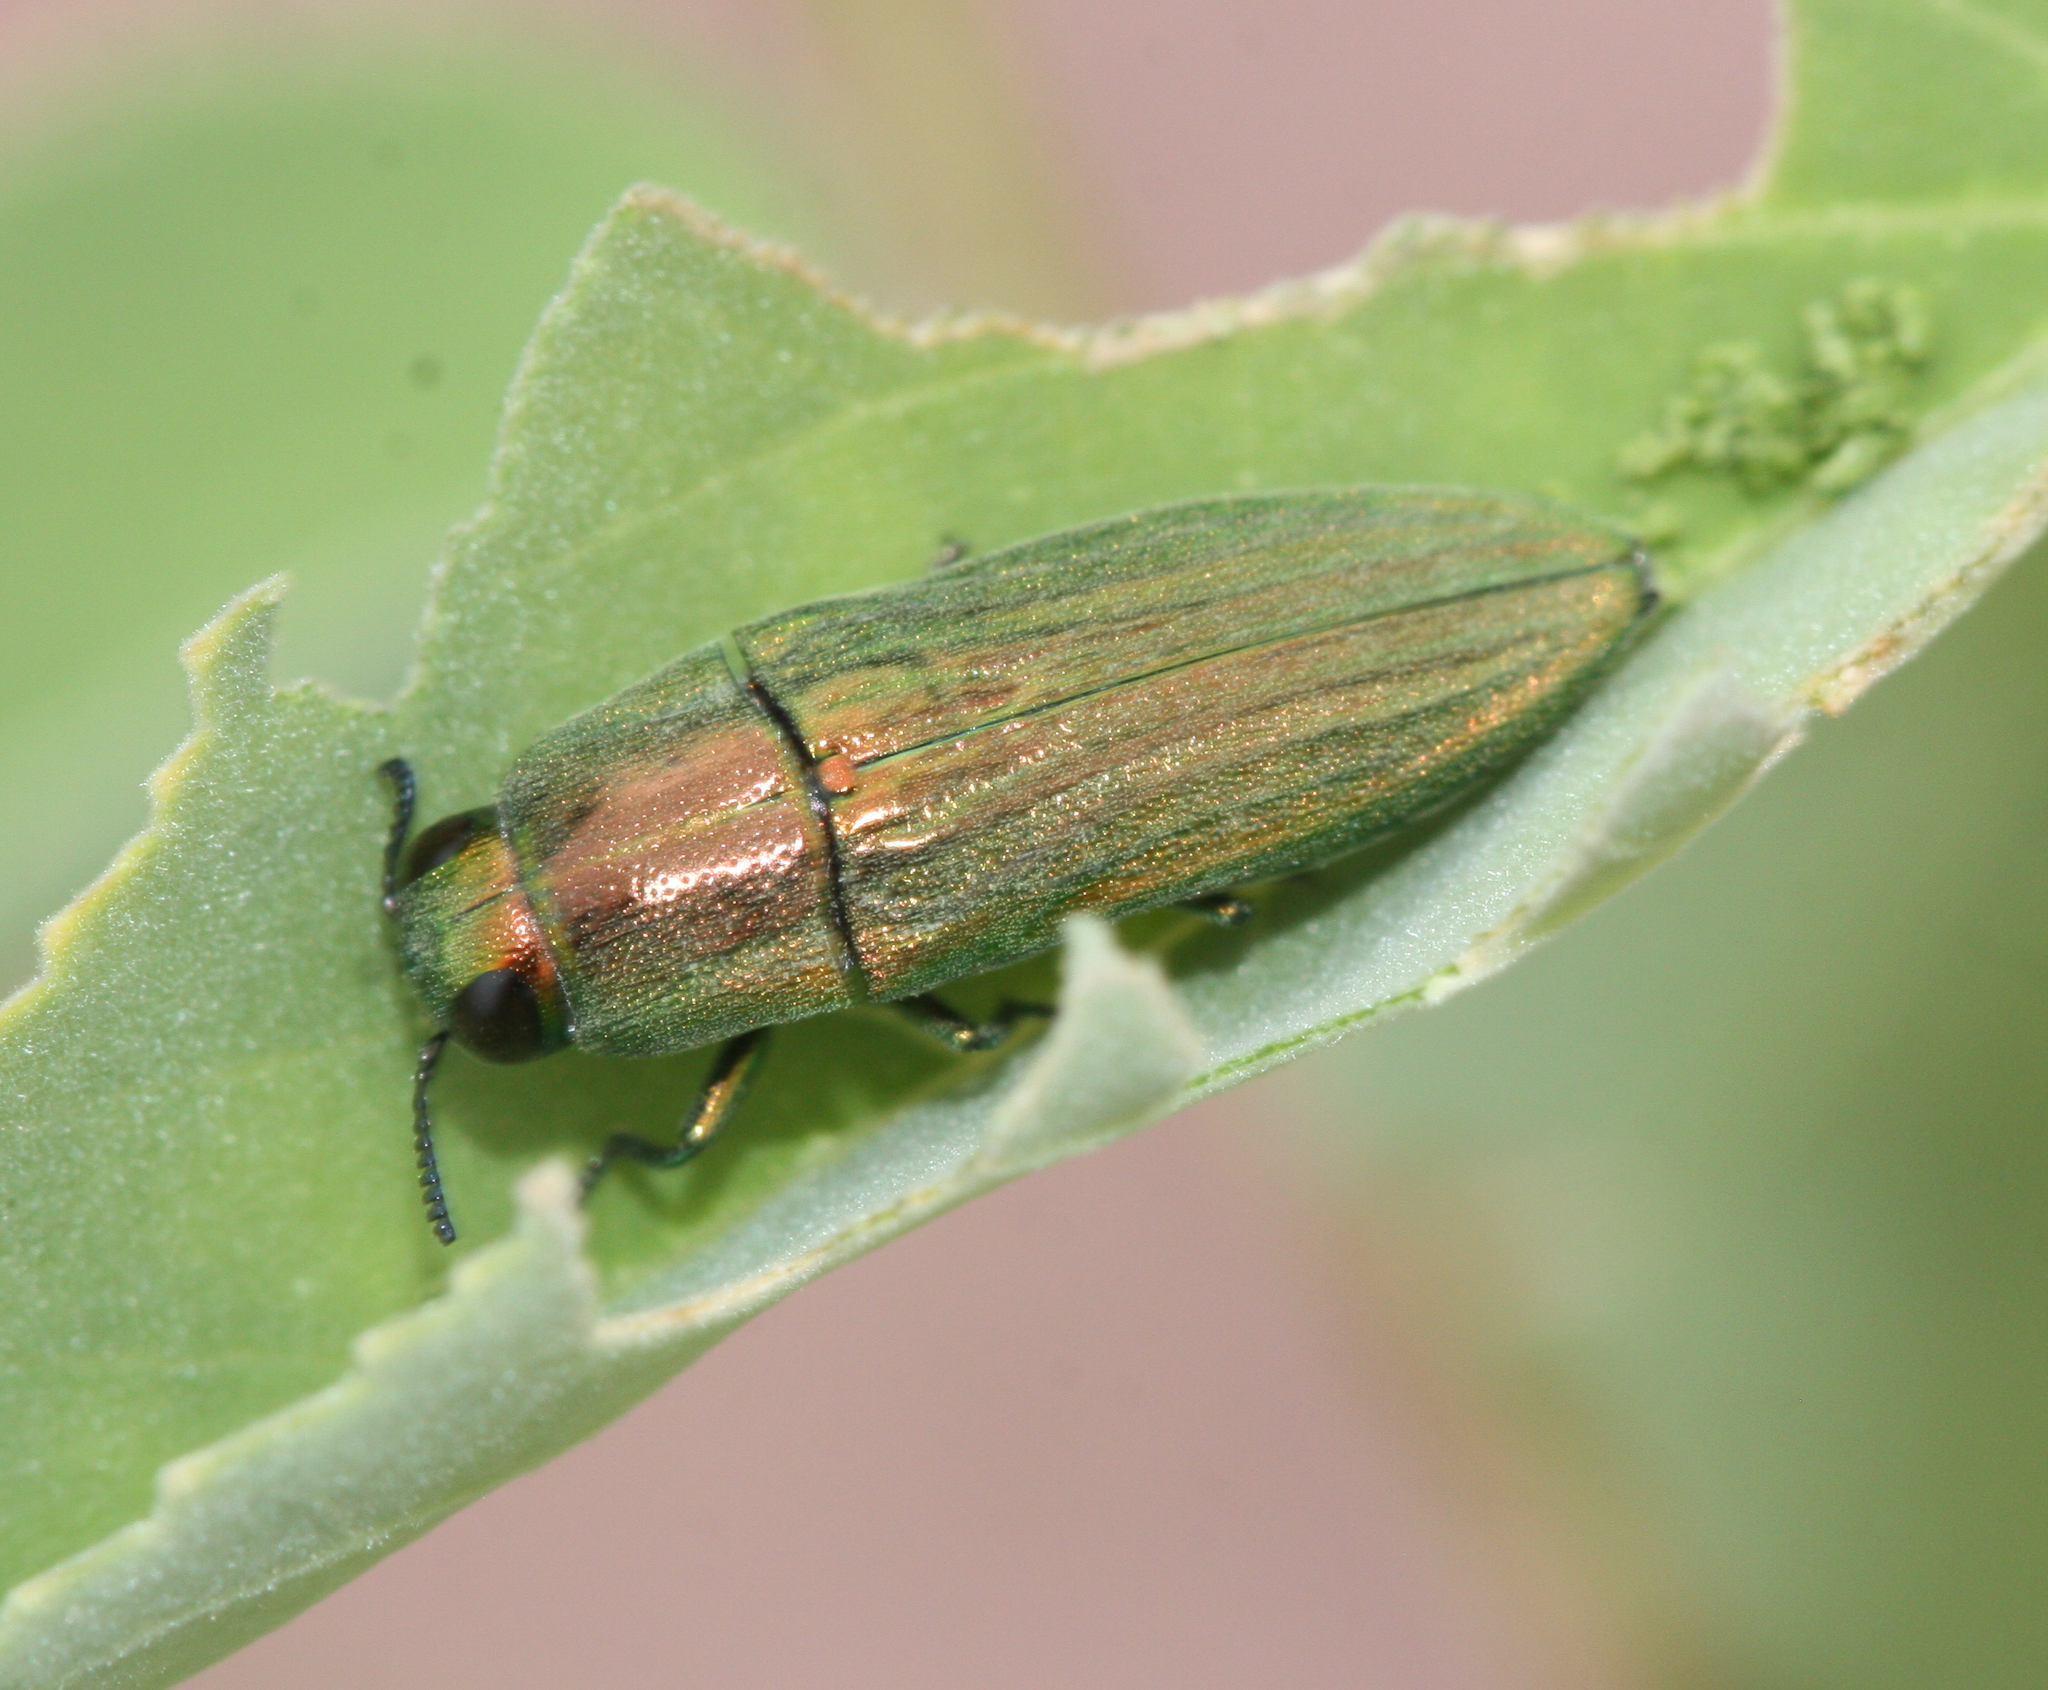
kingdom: Animalia
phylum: Arthropoda
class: Insecta
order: Coleoptera
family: Buprestidae
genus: Agaeocera
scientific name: Agaeocera scintillans
